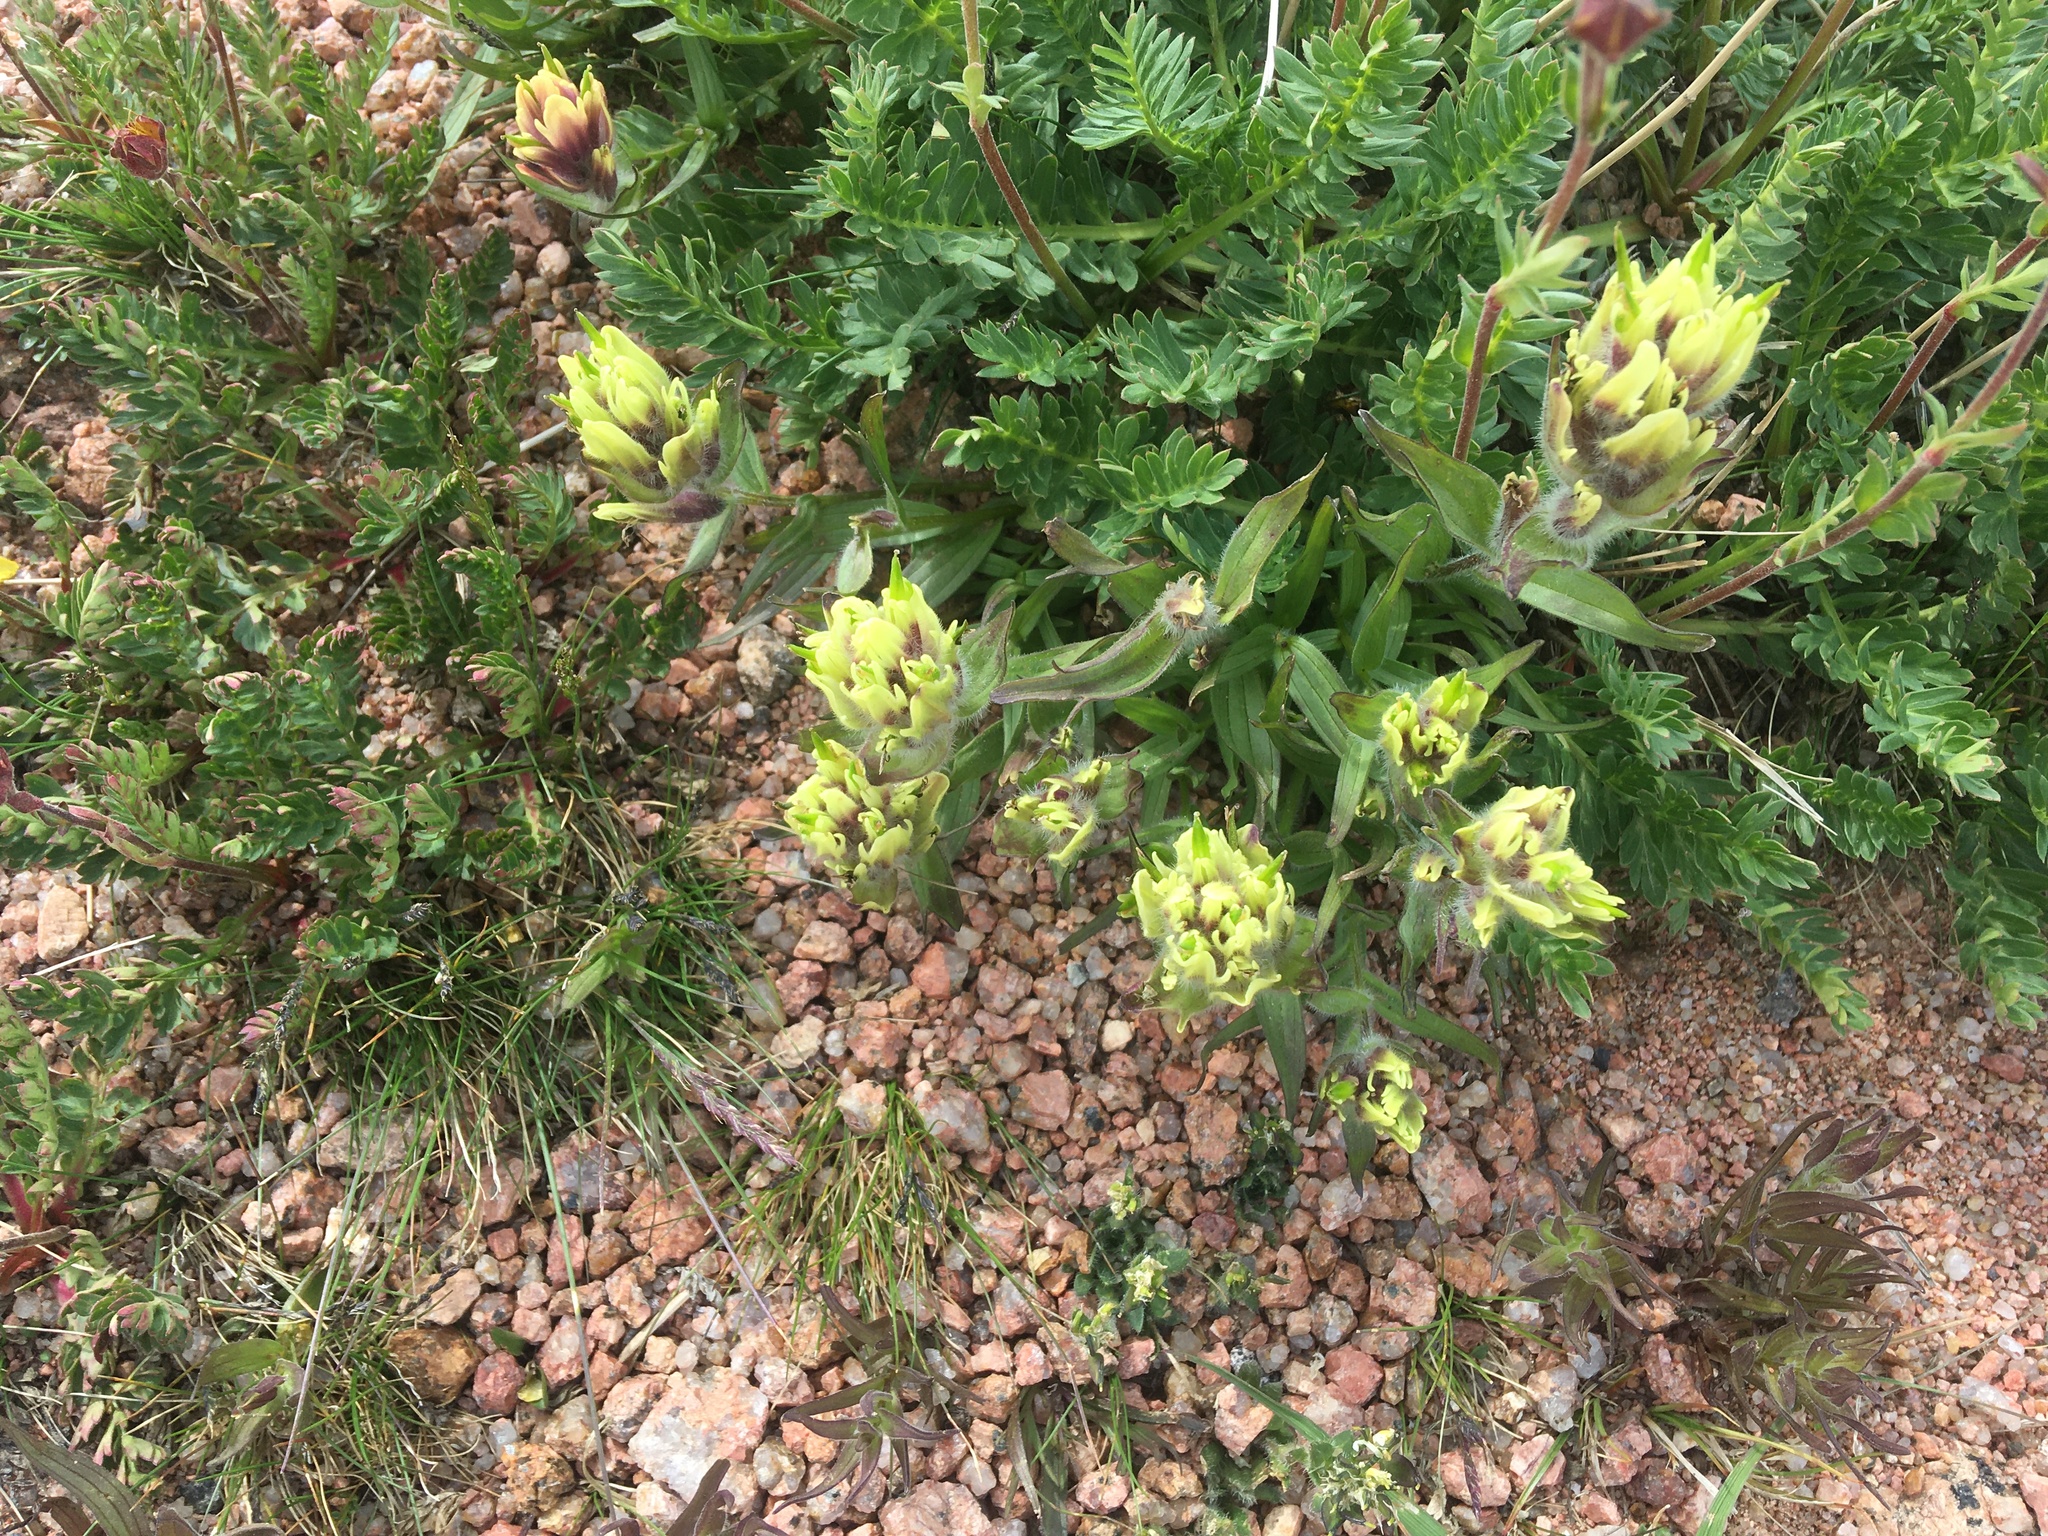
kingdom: Plantae
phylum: Tracheophyta
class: Magnoliopsida
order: Lamiales
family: Orobanchaceae
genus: Castilleja
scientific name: Castilleja occidentalis
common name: Western paintbrush
